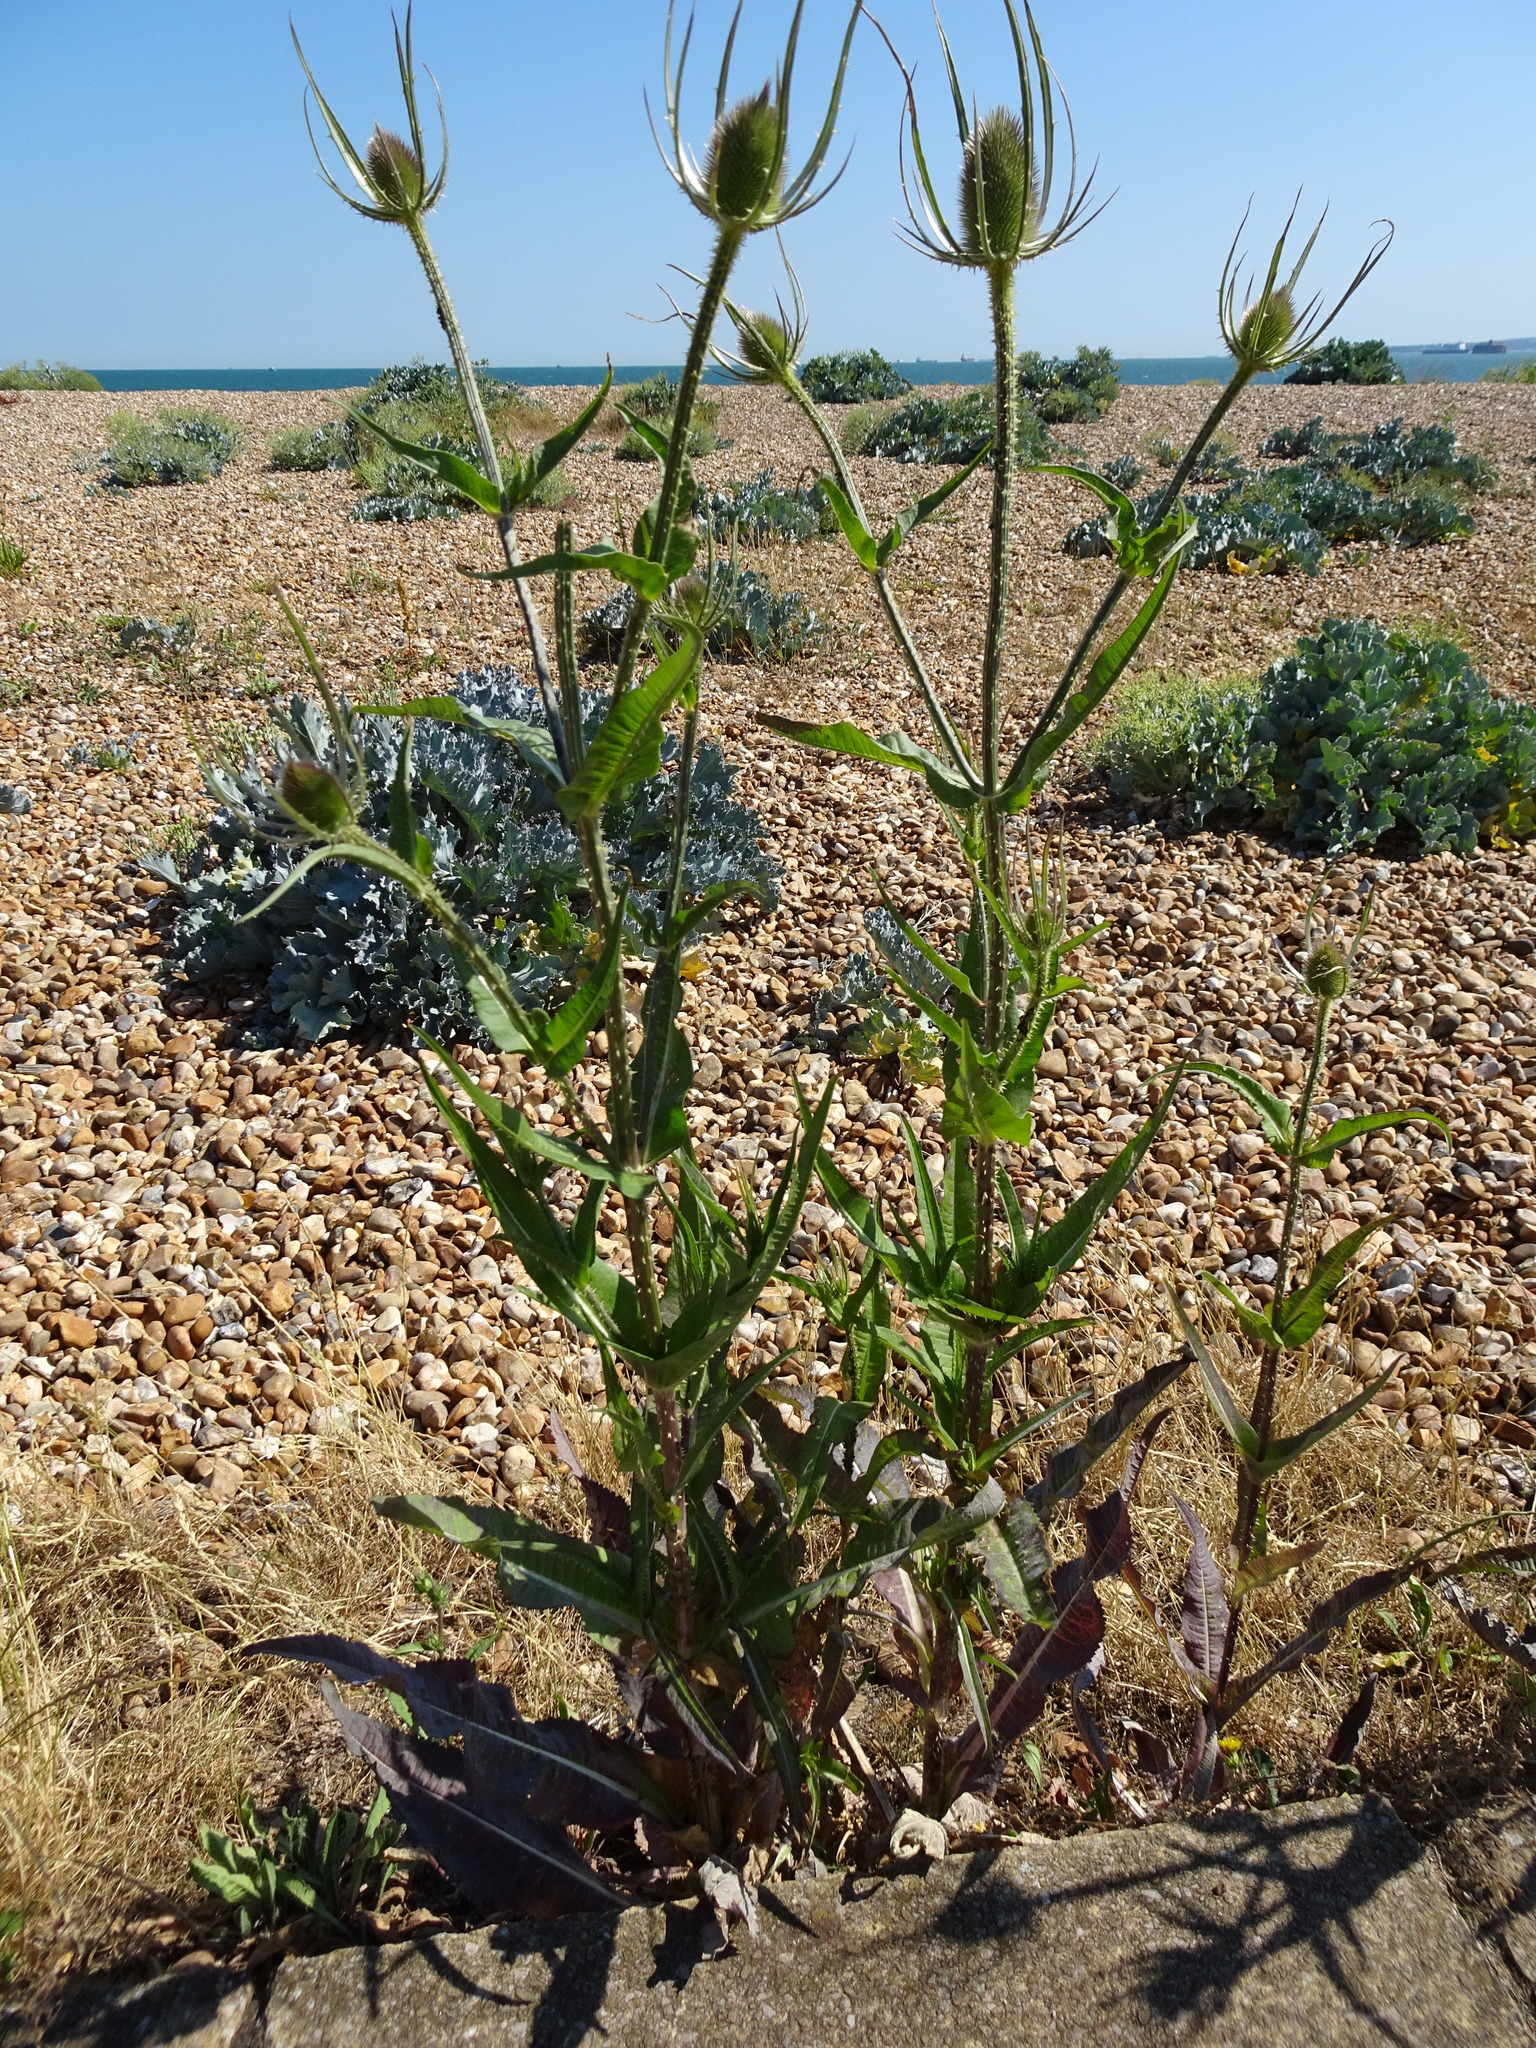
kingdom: Plantae
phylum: Tracheophyta
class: Magnoliopsida
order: Dipsacales
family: Caprifoliaceae
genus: Dipsacus
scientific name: Dipsacus fullonum
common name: Teasel
